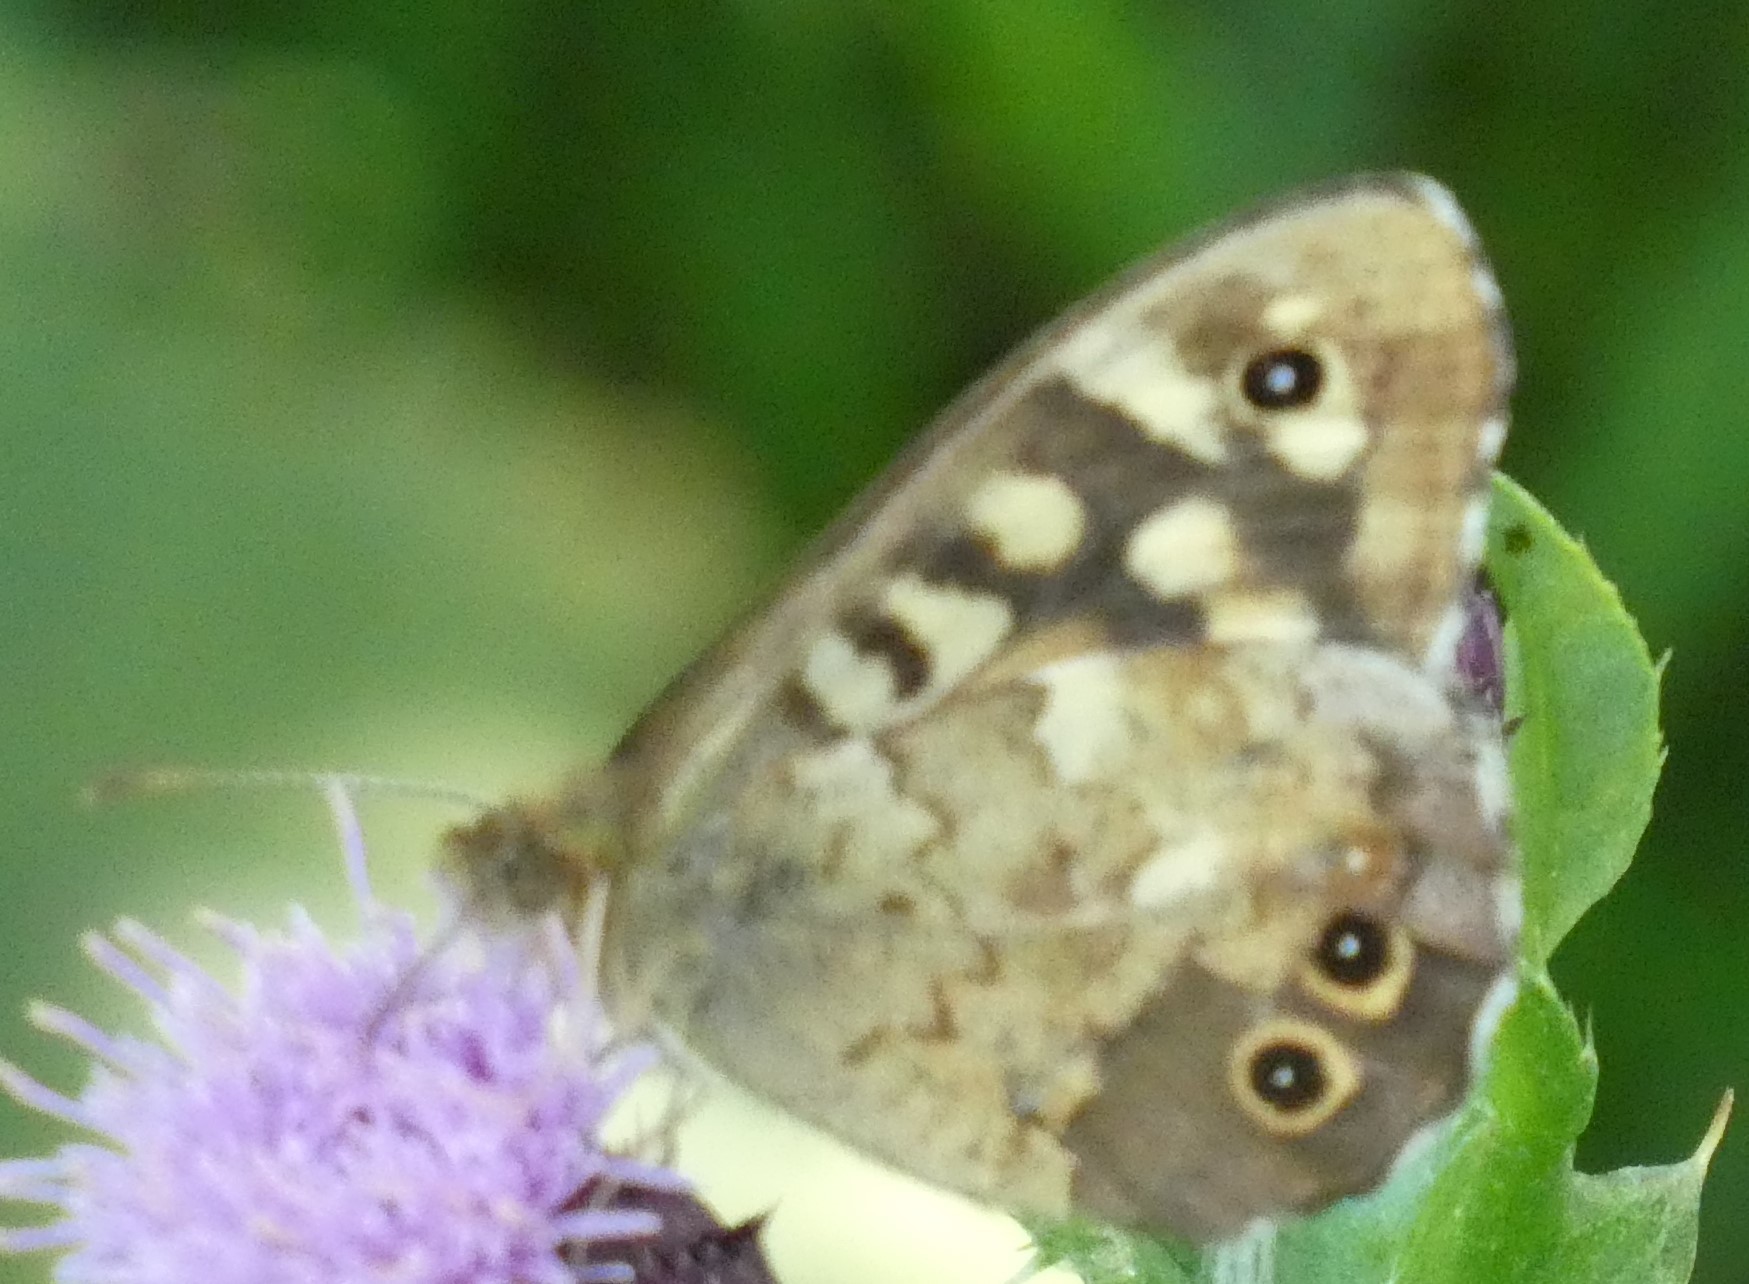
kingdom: Animalia
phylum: Arthropoda
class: Insecta
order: Lepidoptera
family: Nymphalidae
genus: Pararge
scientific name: Pararge aegeria
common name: Speckled wood
